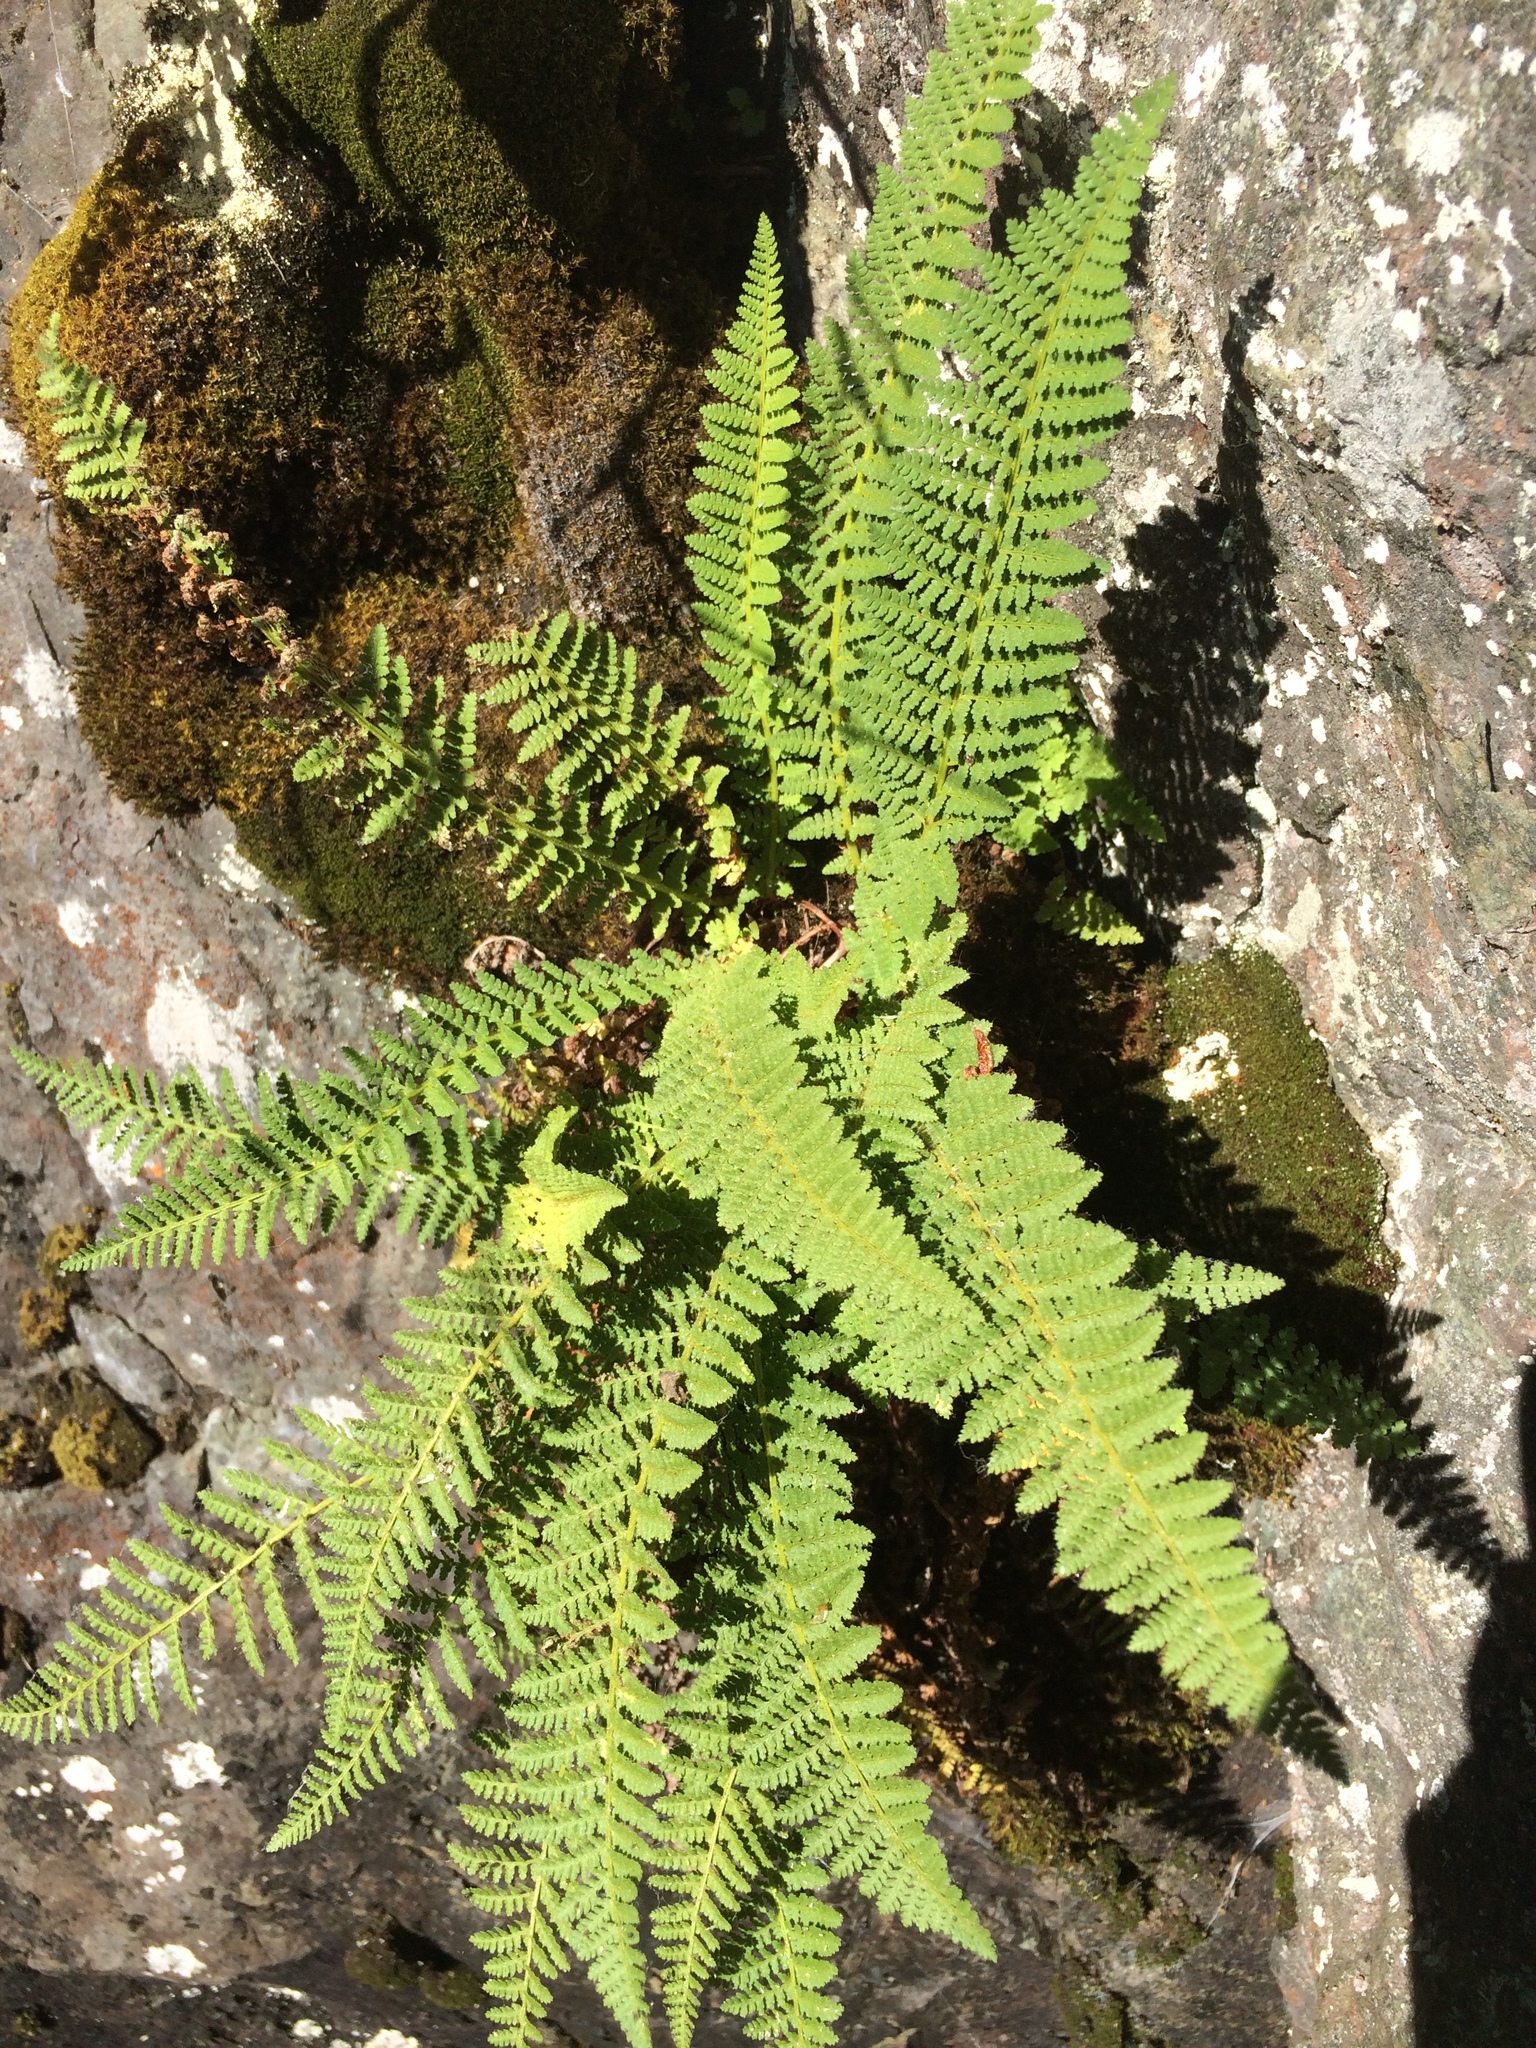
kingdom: Plantae
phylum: Tracheophyta
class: Polypodiopsida
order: Polypodiales
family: Dryopteridaceae
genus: Dryopteris
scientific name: Dryopteris fragrans
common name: Fragrant wood fern
